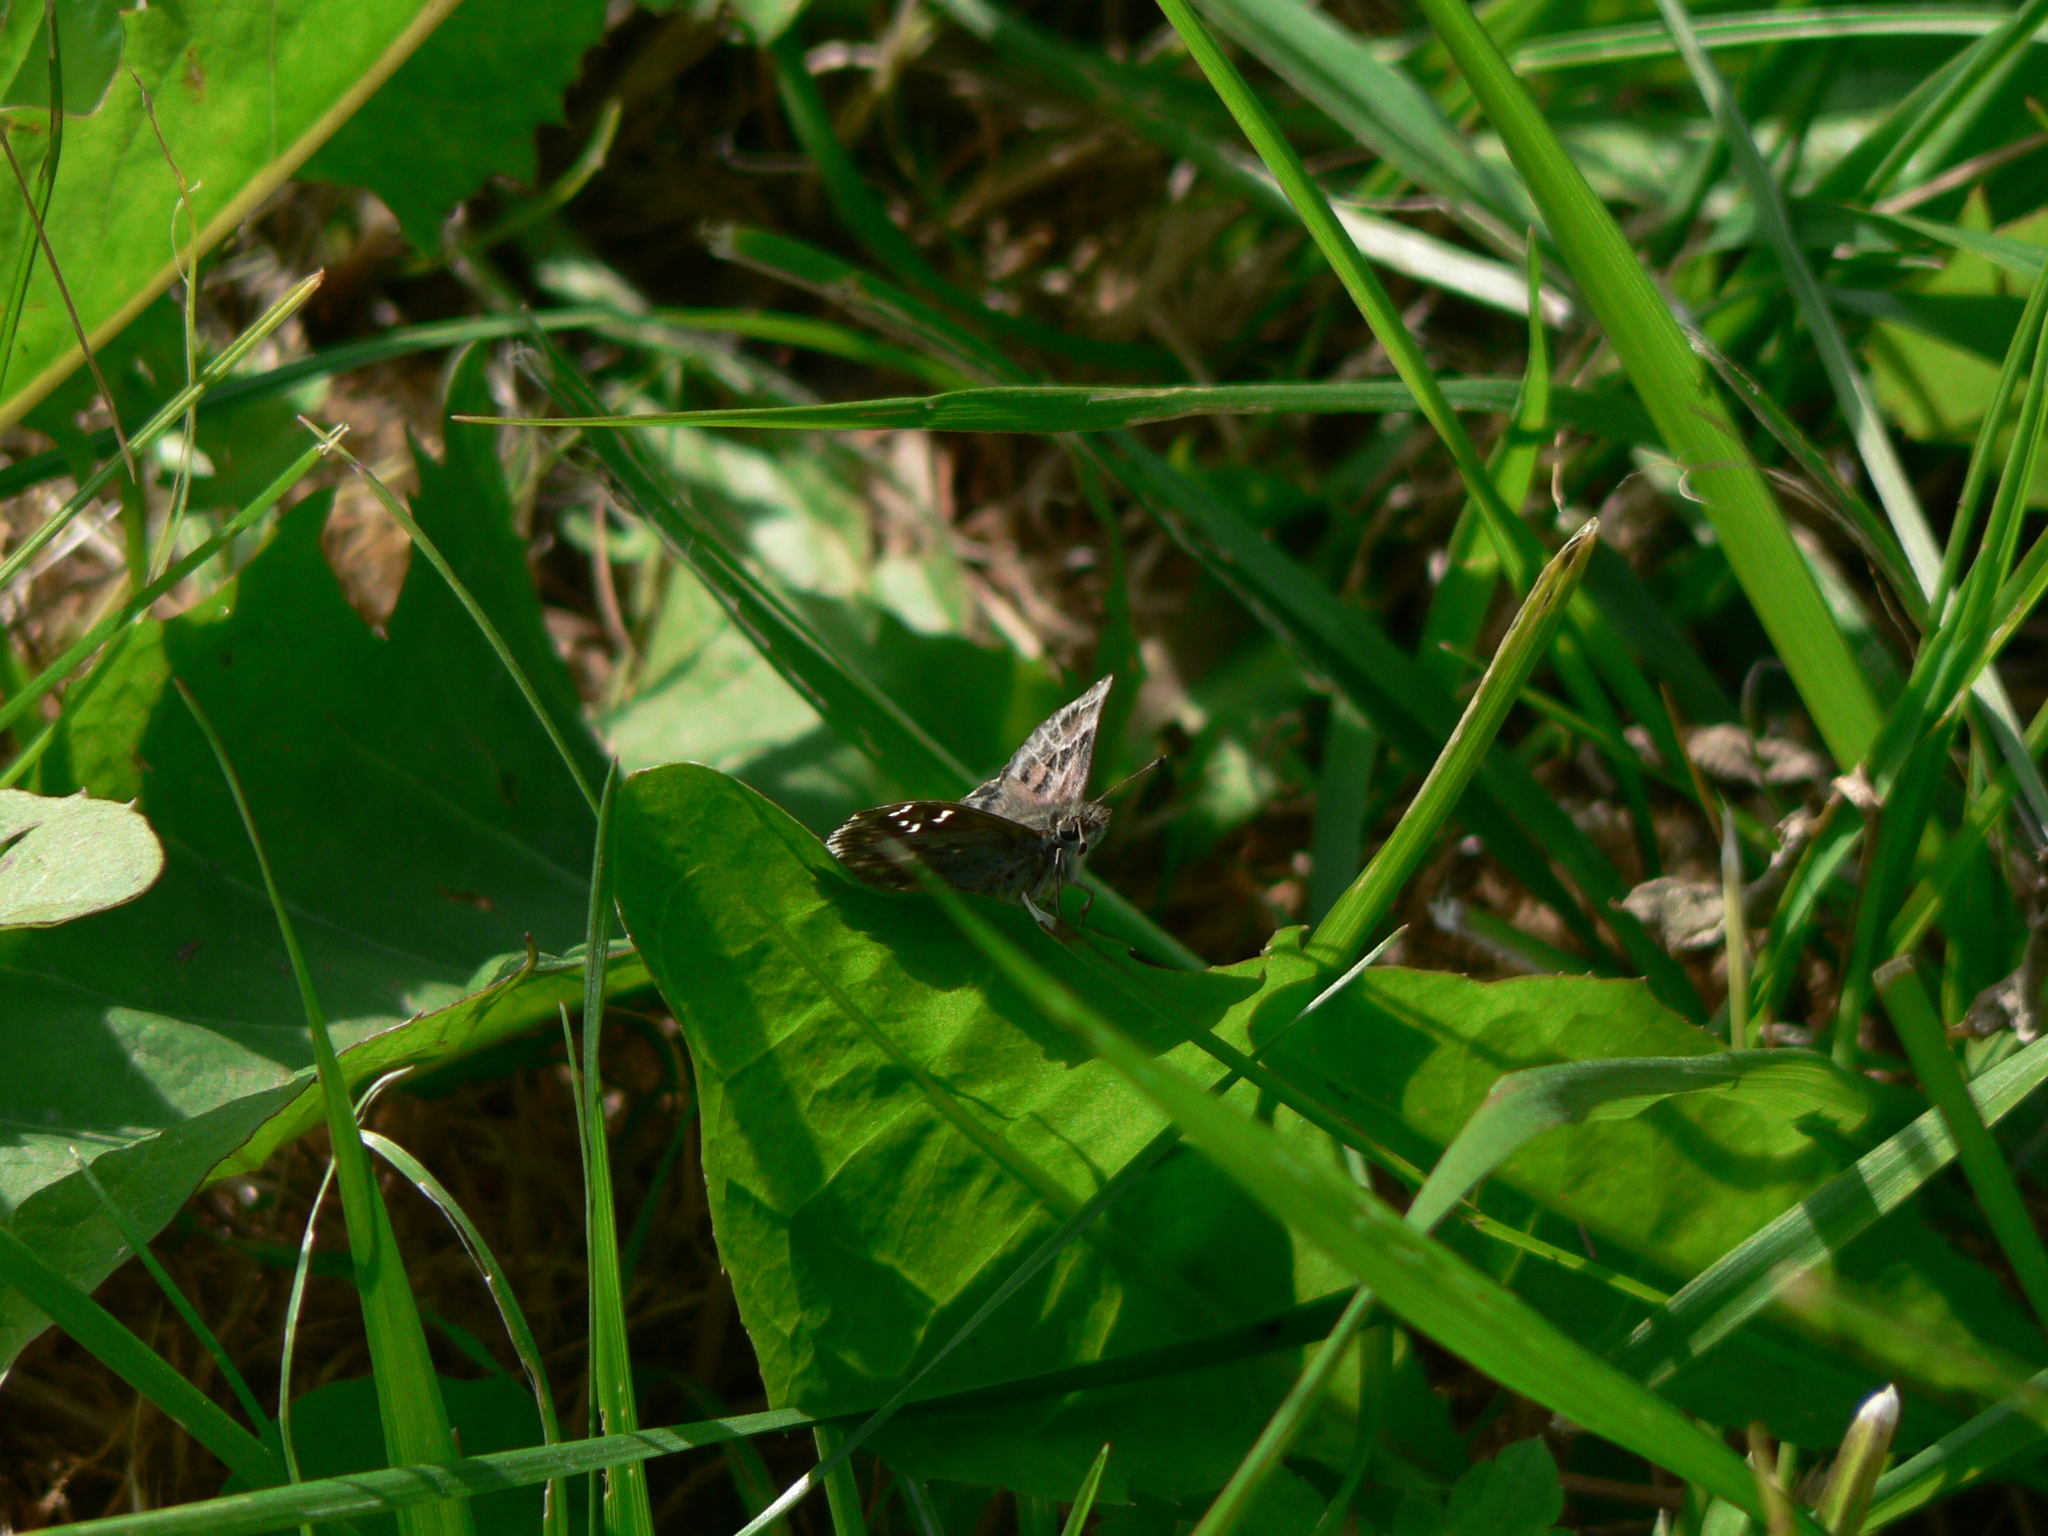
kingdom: Animalia
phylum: Arthropoda
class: Insecta
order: Lepidoptera
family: Hesperiidae
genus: Carcharodus
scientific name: Carcharodus alceae
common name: Mallow skipper
